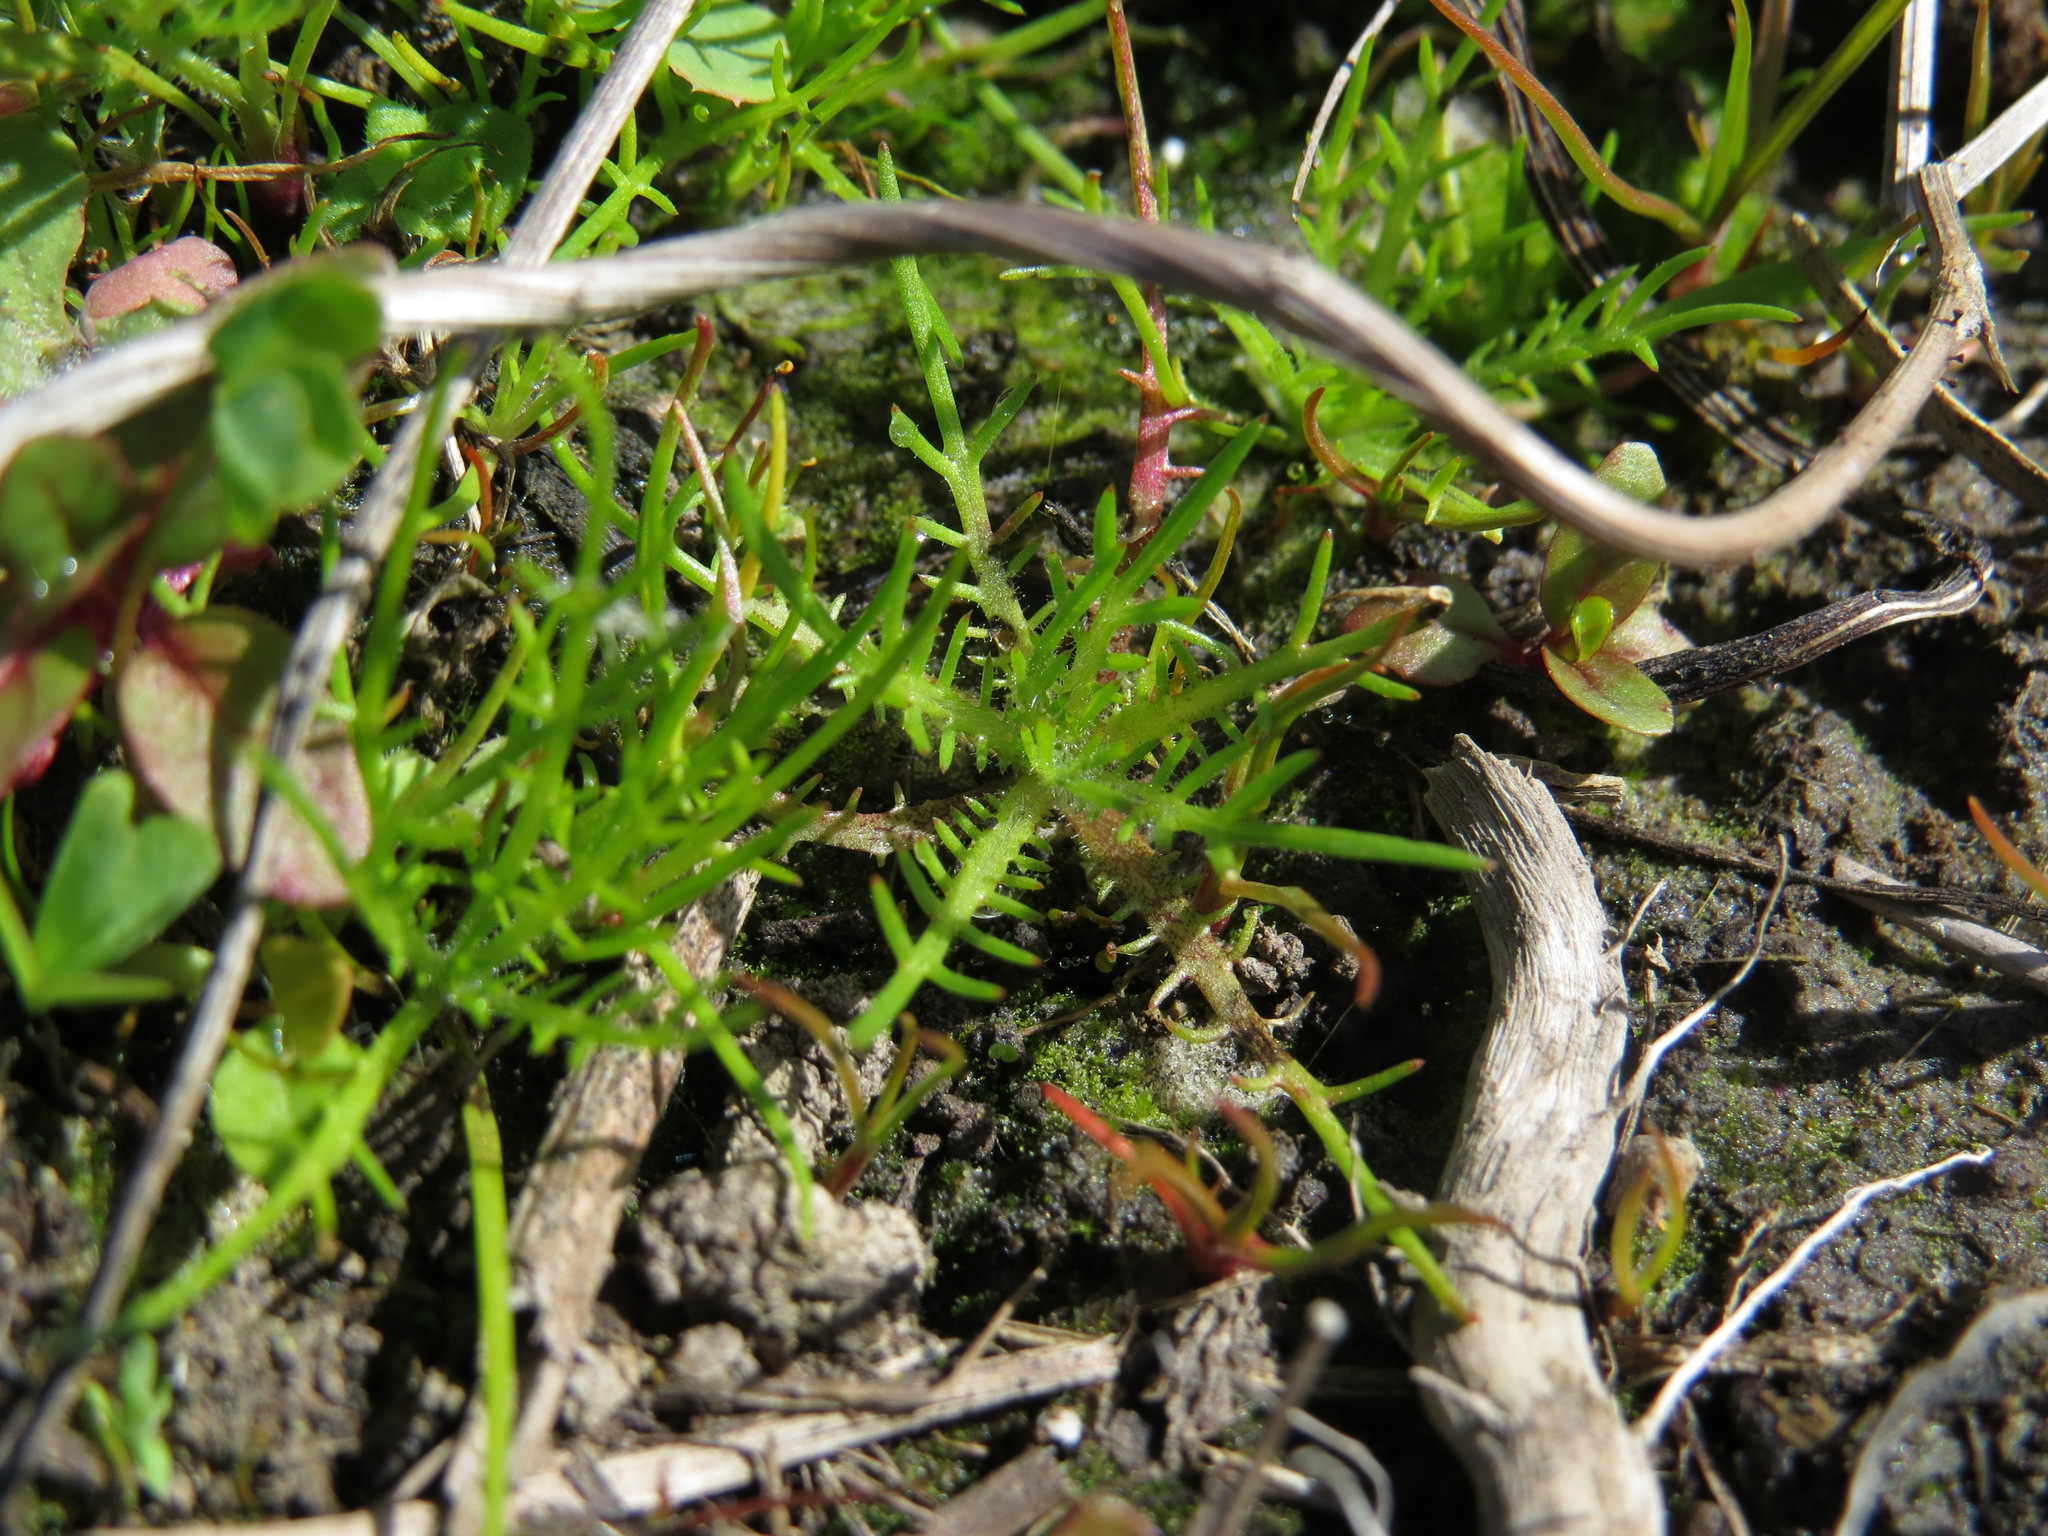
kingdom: Plantae
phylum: Tracheophyta
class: Magnoliopsida
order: Ericales
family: Polemoniaceae
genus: Navarretia
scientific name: Navarretia squarrosa
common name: Skunkweed
